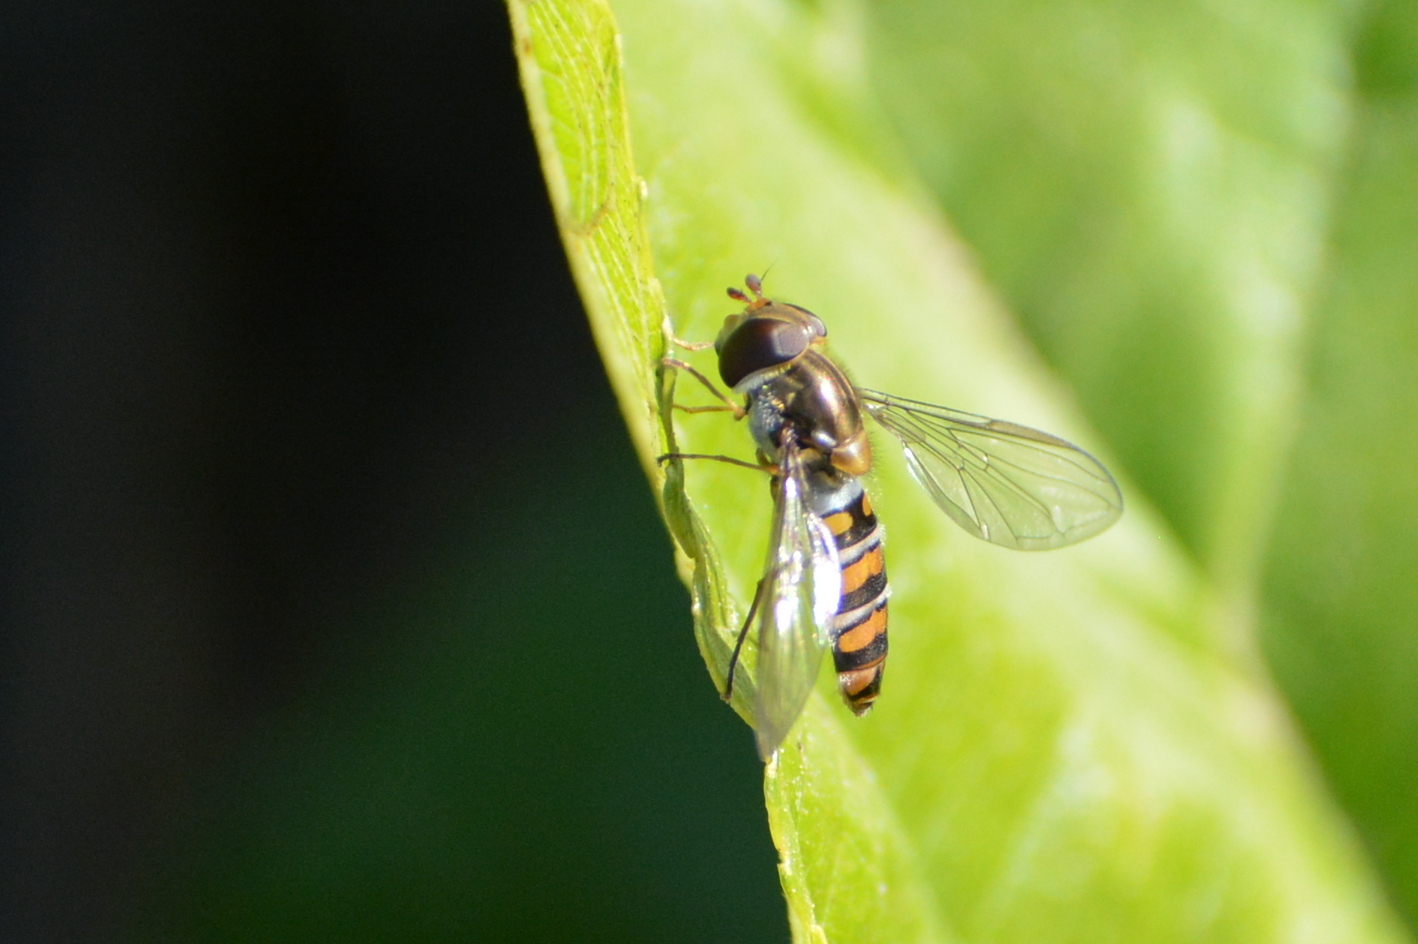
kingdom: Animalia
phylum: Arthropoda
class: Insecta
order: Diptera
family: Syrphidae
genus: Episyrphus
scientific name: Episyrphus balteatus
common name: Marmalade hoverfly
